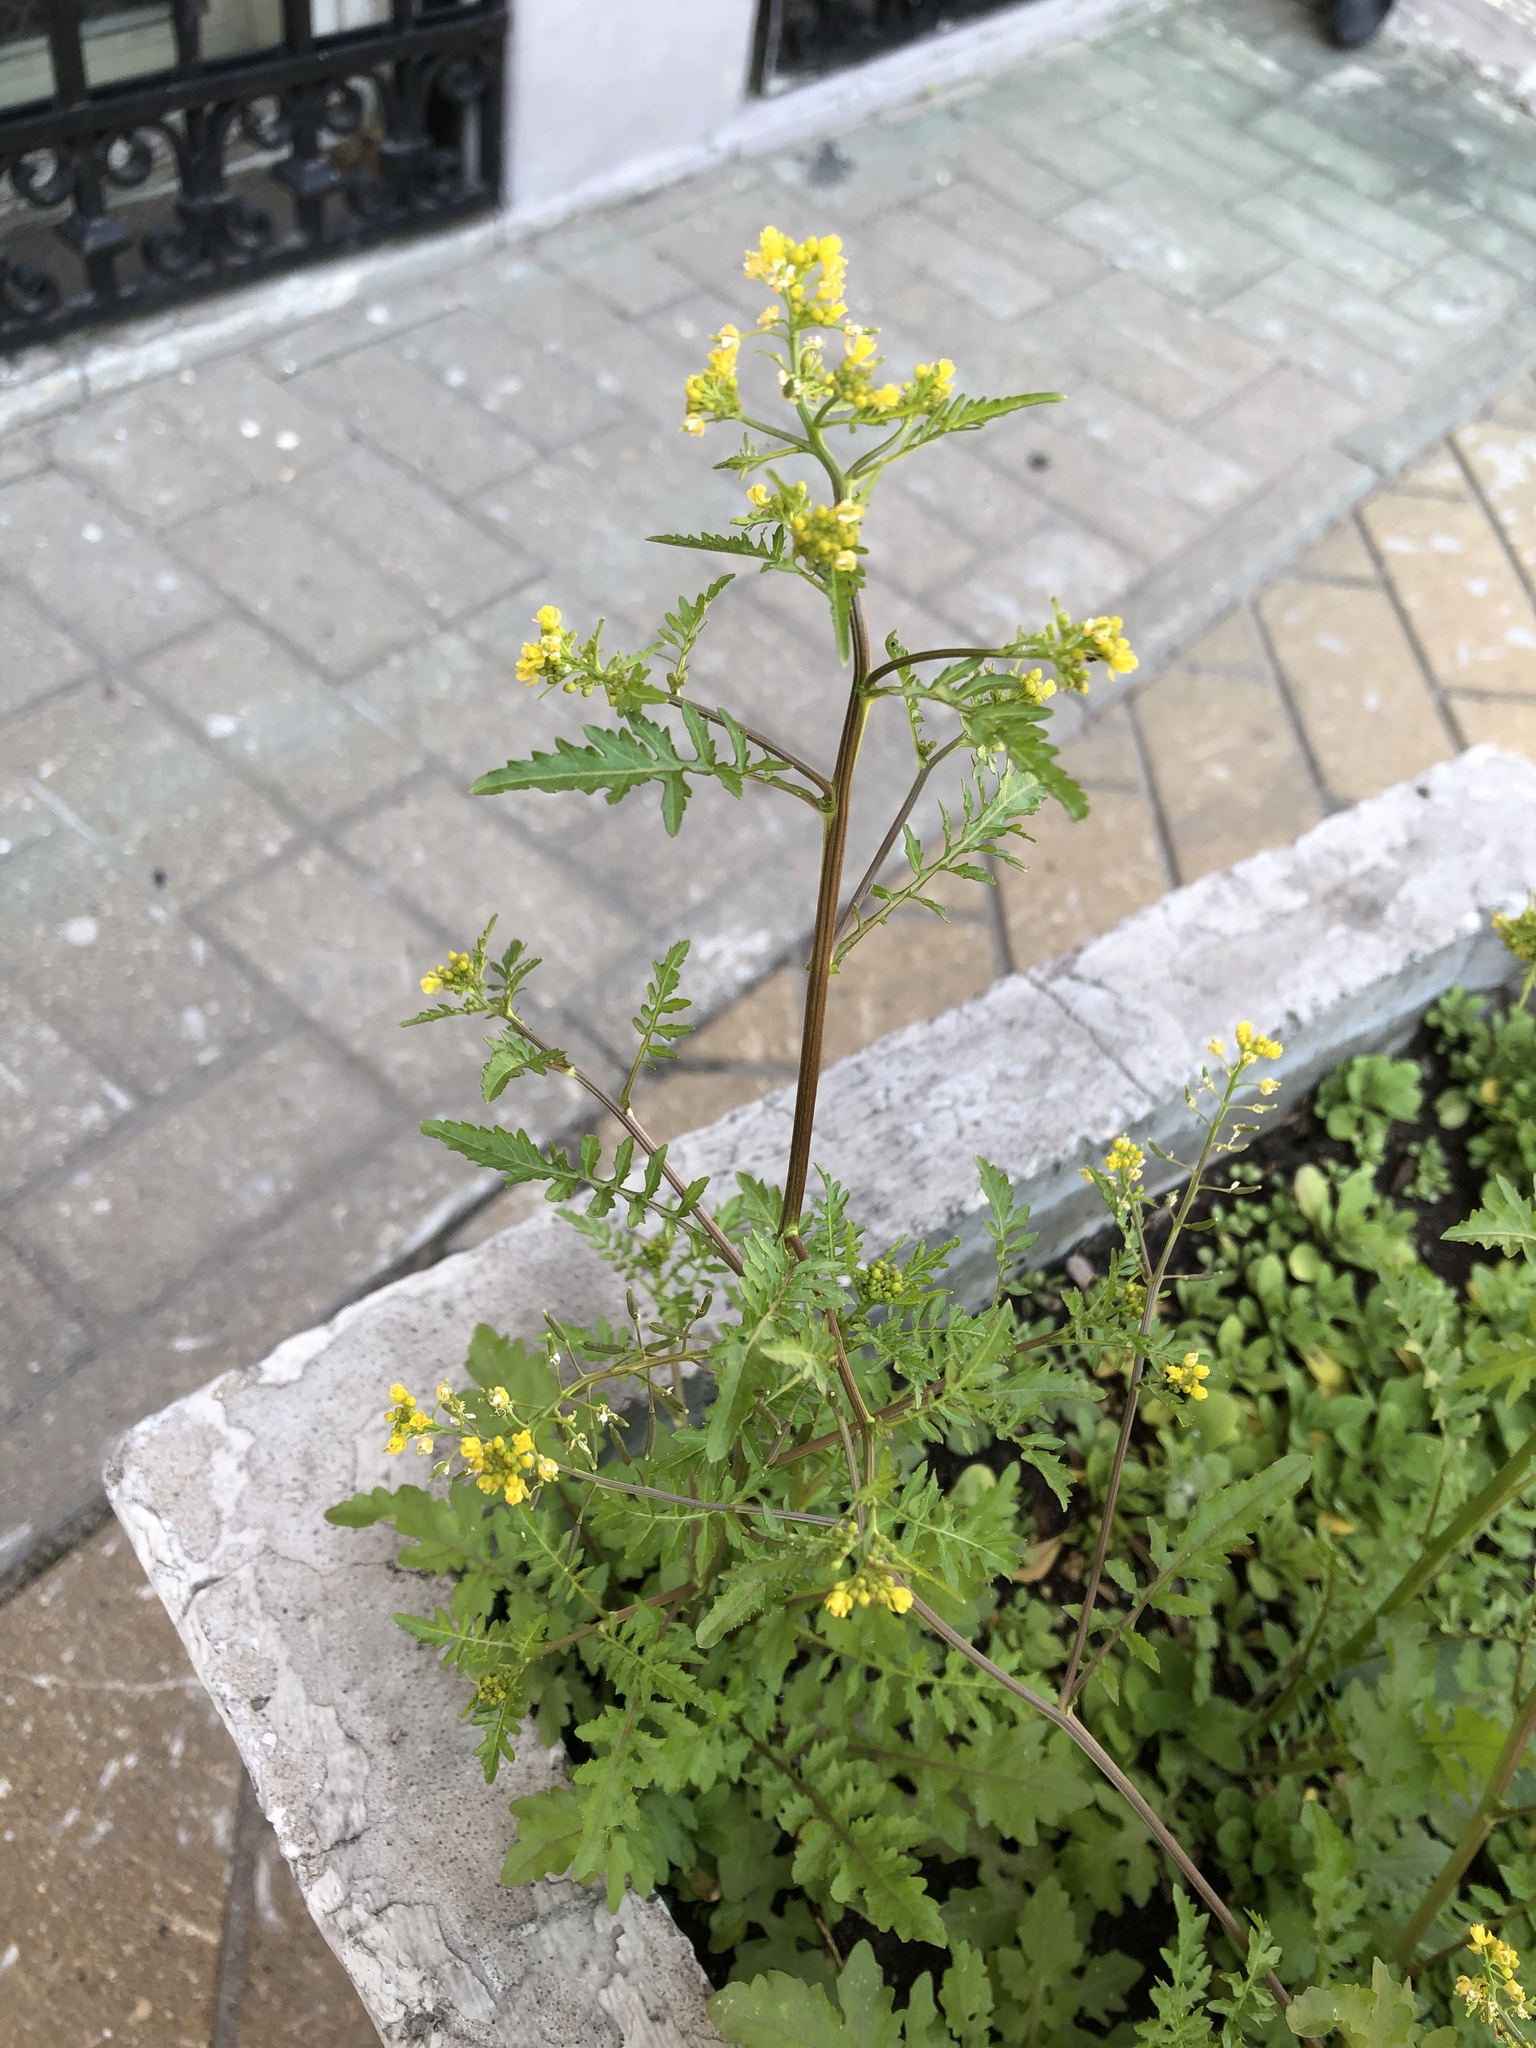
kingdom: Plantae
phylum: Tracheophyta
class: Magnoliopsida
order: Brassicales
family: Brassicaceae
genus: Rorippa
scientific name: Rorippa palustris
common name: Marsh yellow-cress
